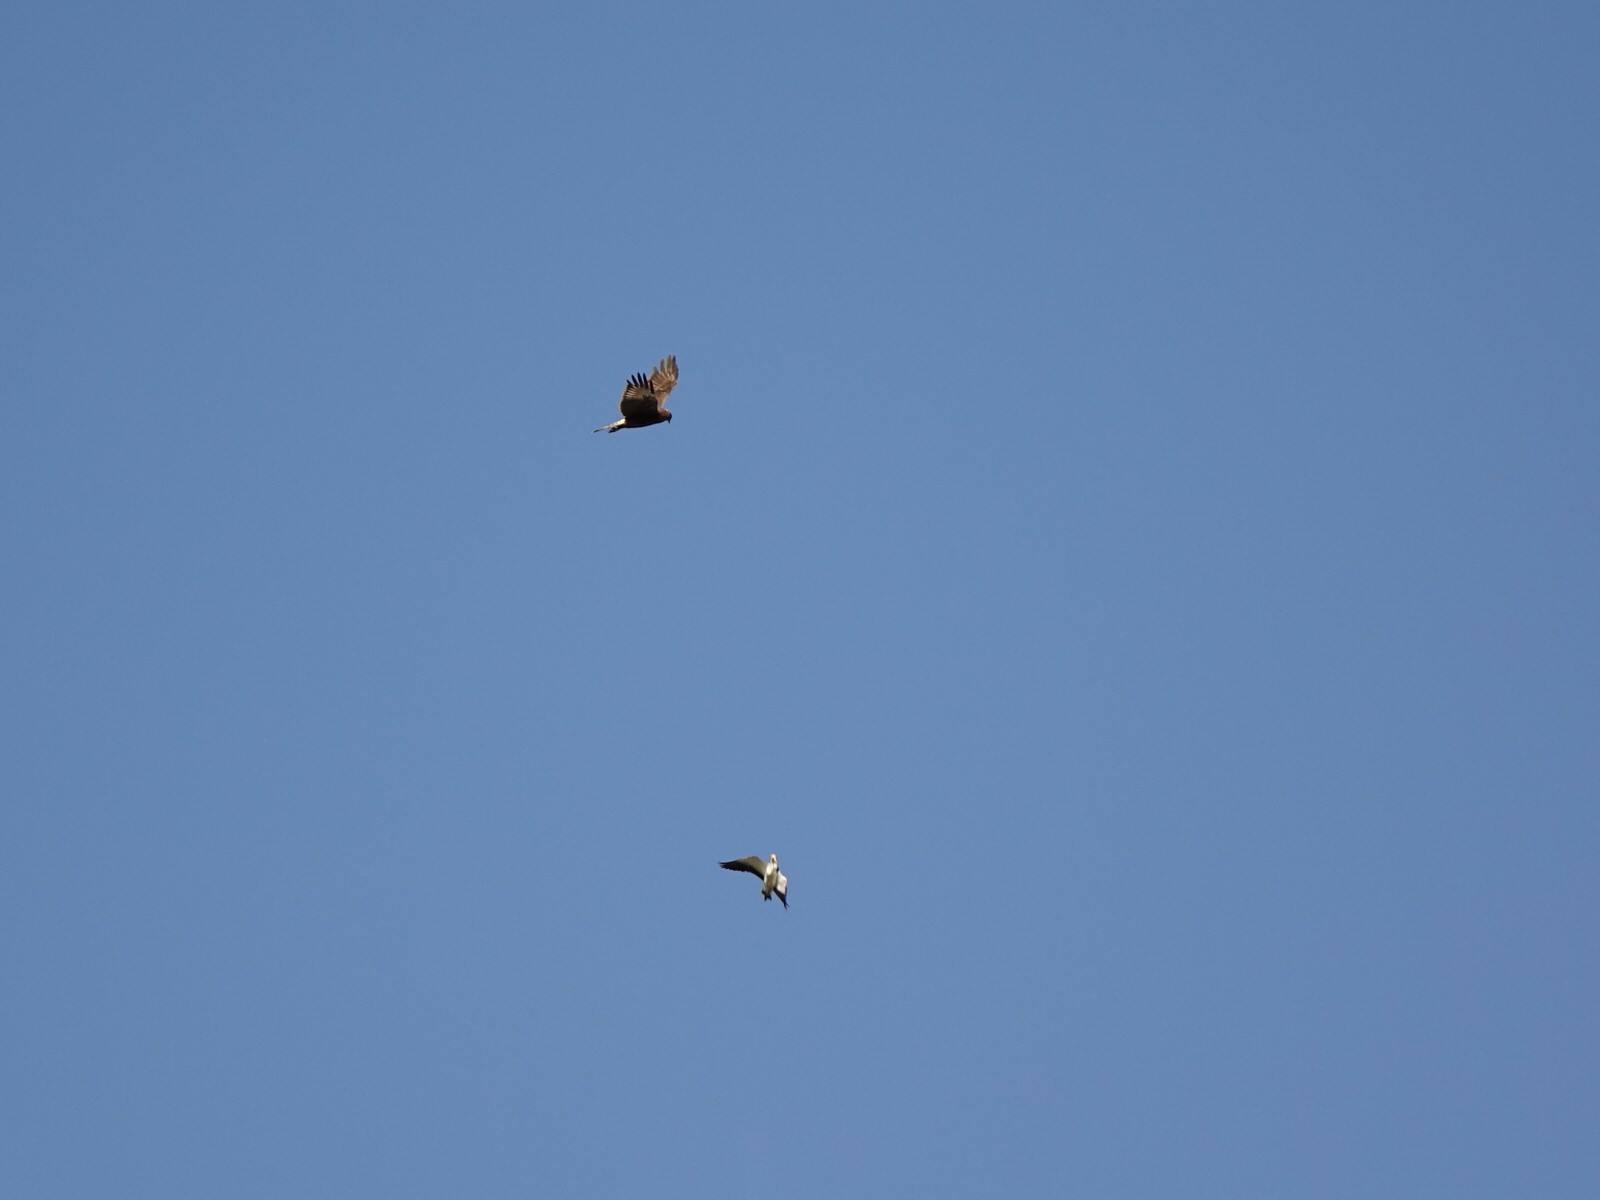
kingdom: Animalia
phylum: Chordata
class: Aves
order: Accipitriformes
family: Accipitridae
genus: Circus
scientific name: Circus approximans
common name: Swamp harrier
